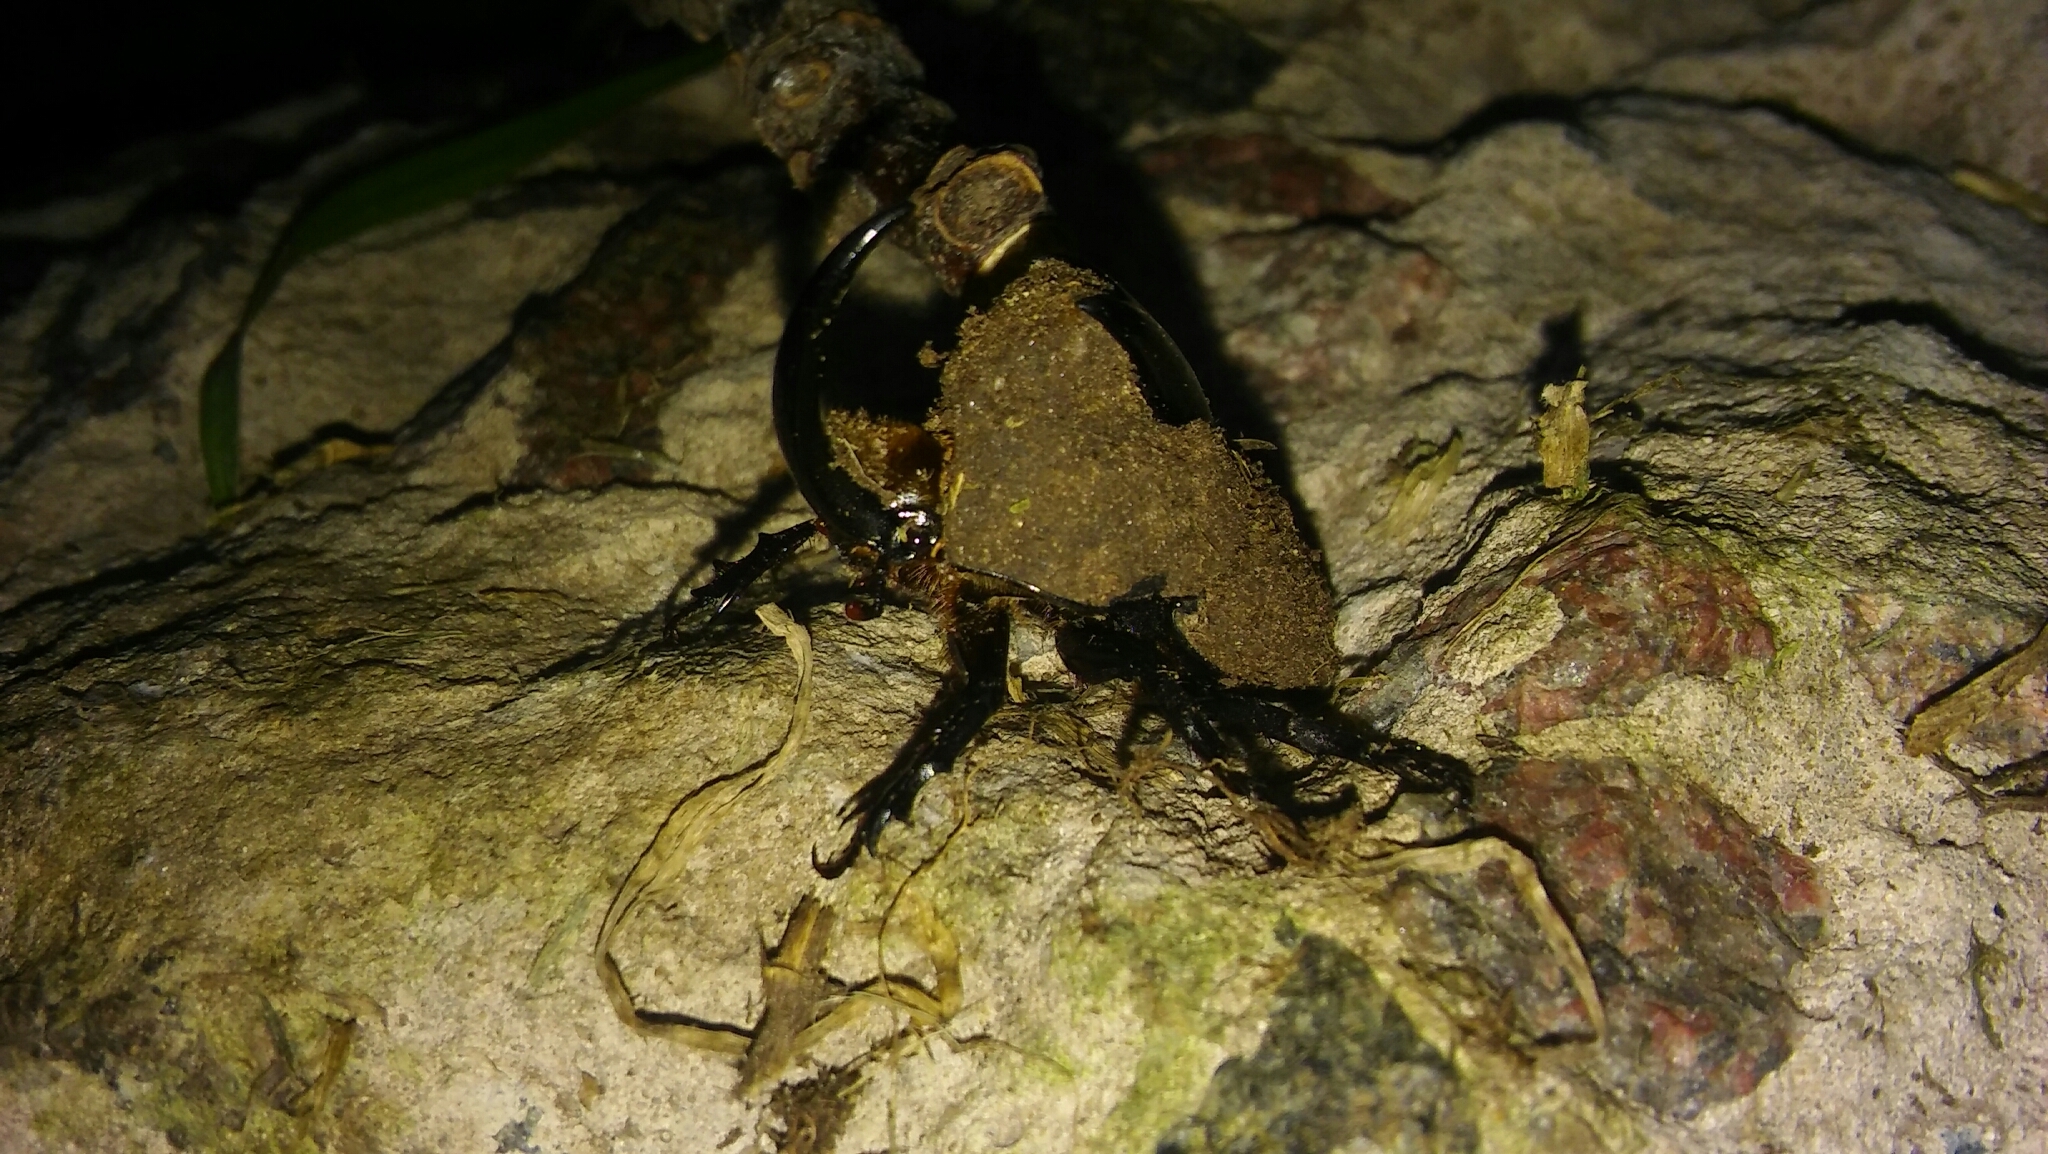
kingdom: Animalia
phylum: Arthropoda
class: Insecta
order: Coleoptera
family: Scarabaeidae
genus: Diloboderus
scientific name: Diloboderus abderus
